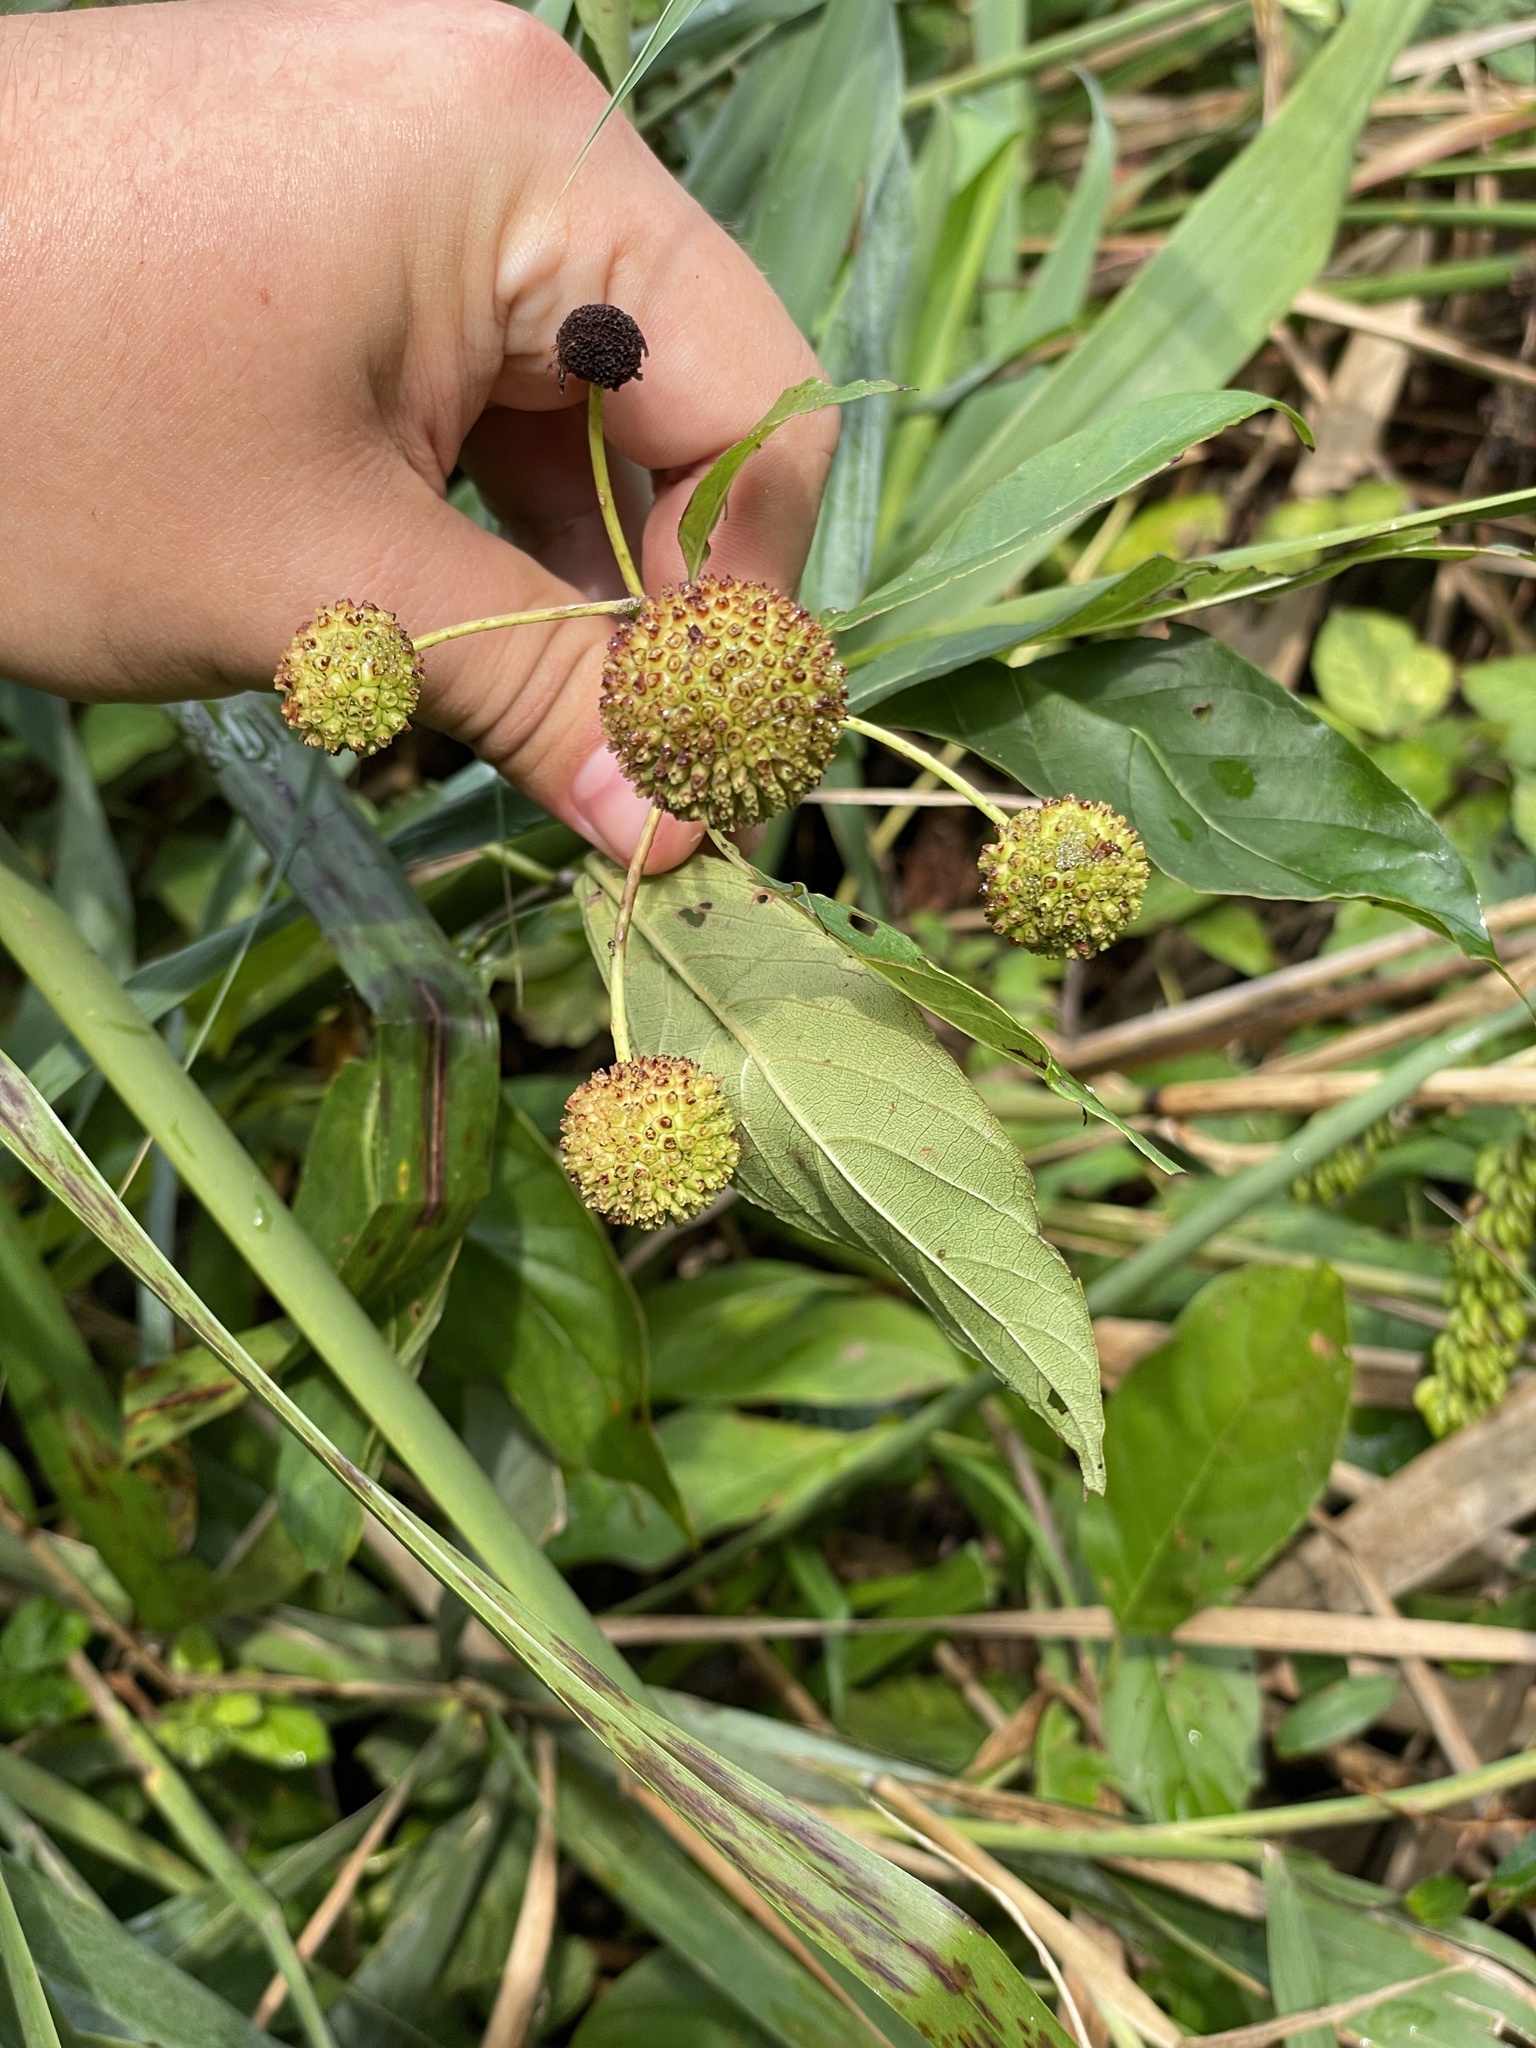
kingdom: Plantae
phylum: Tracheophyta
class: Magnoliopsida
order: Gentianales
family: Rubiaceae
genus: Cephalanthus
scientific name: Cephalanthus occidentalis
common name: Button-willow
